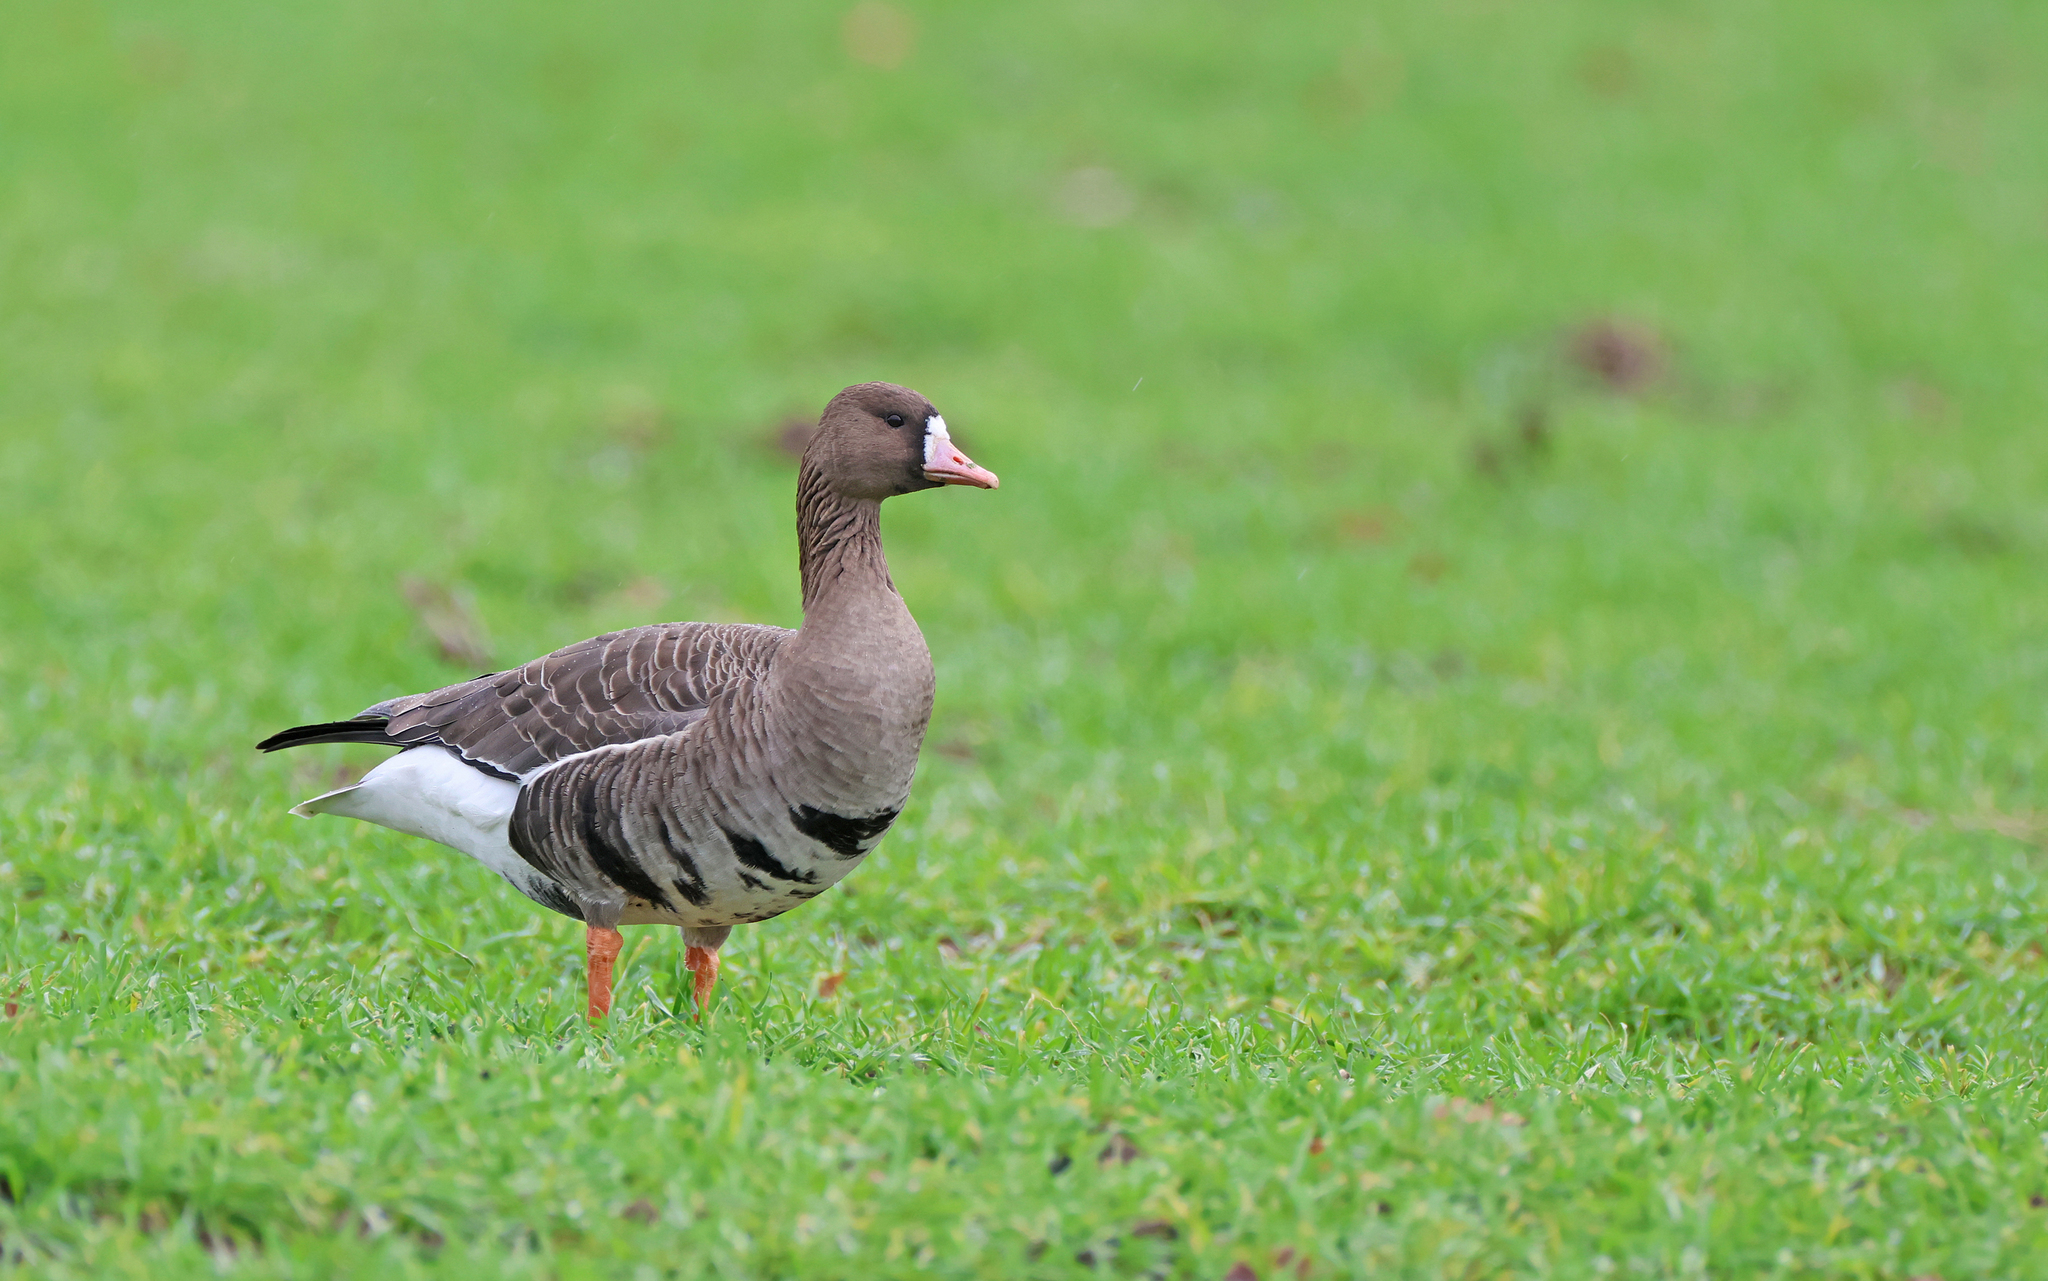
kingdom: Animalia
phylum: Chordata
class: Aves
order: Anseriformes
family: Anatidae
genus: Anser
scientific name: Anser albifrons
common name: Greater white-fronted goose
